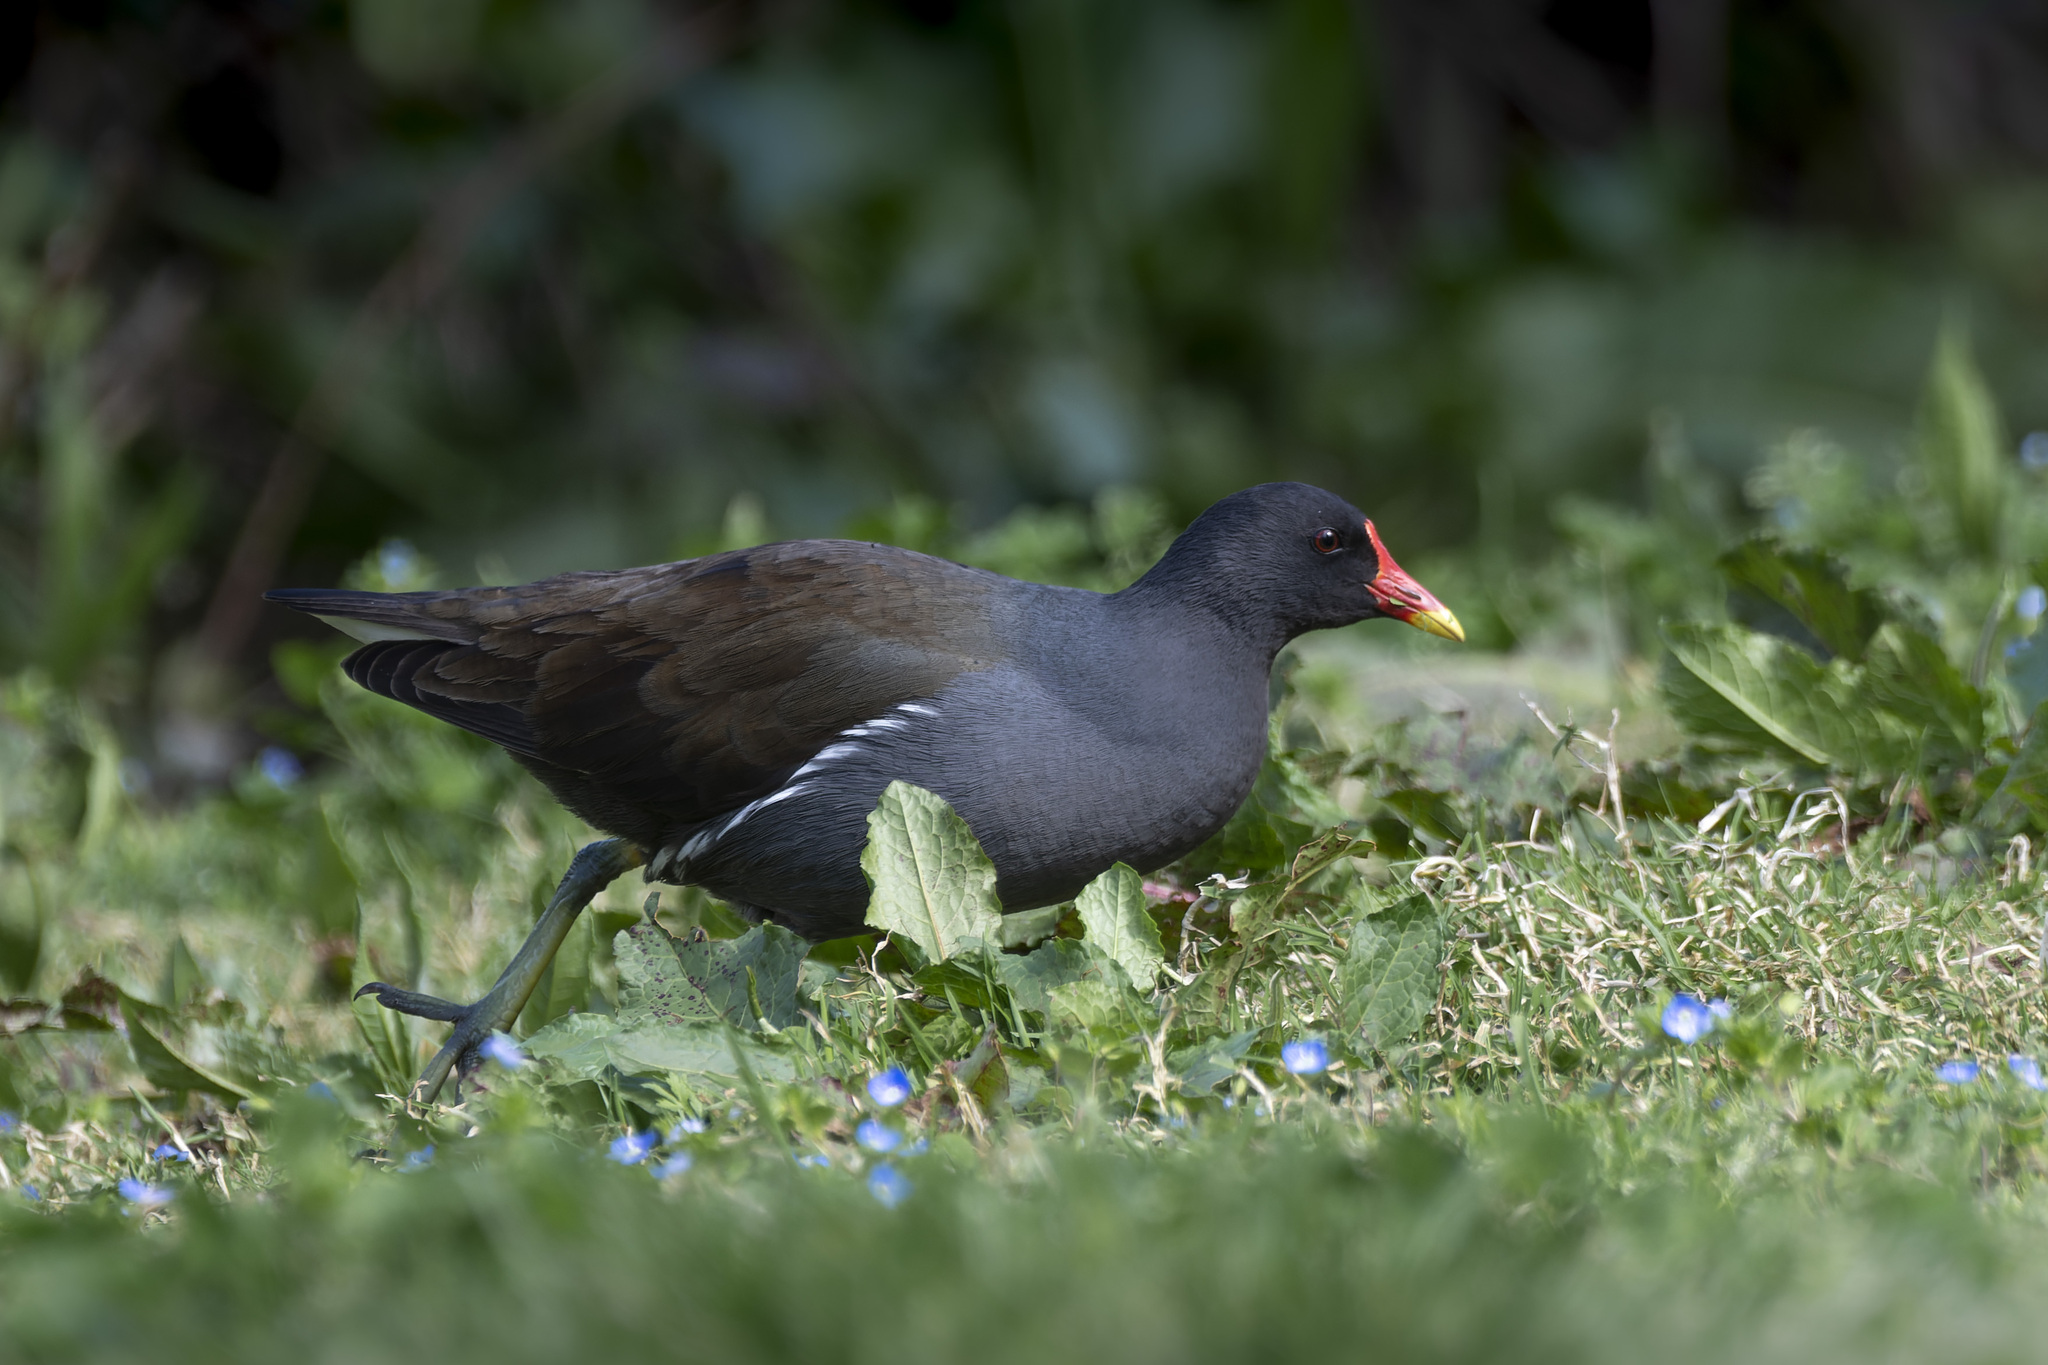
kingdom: Animalia
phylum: Chordata
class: Aves
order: Gruiformes
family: Rallidae
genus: Gallinula
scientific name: Gallinula chloropus
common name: Common moorhen
